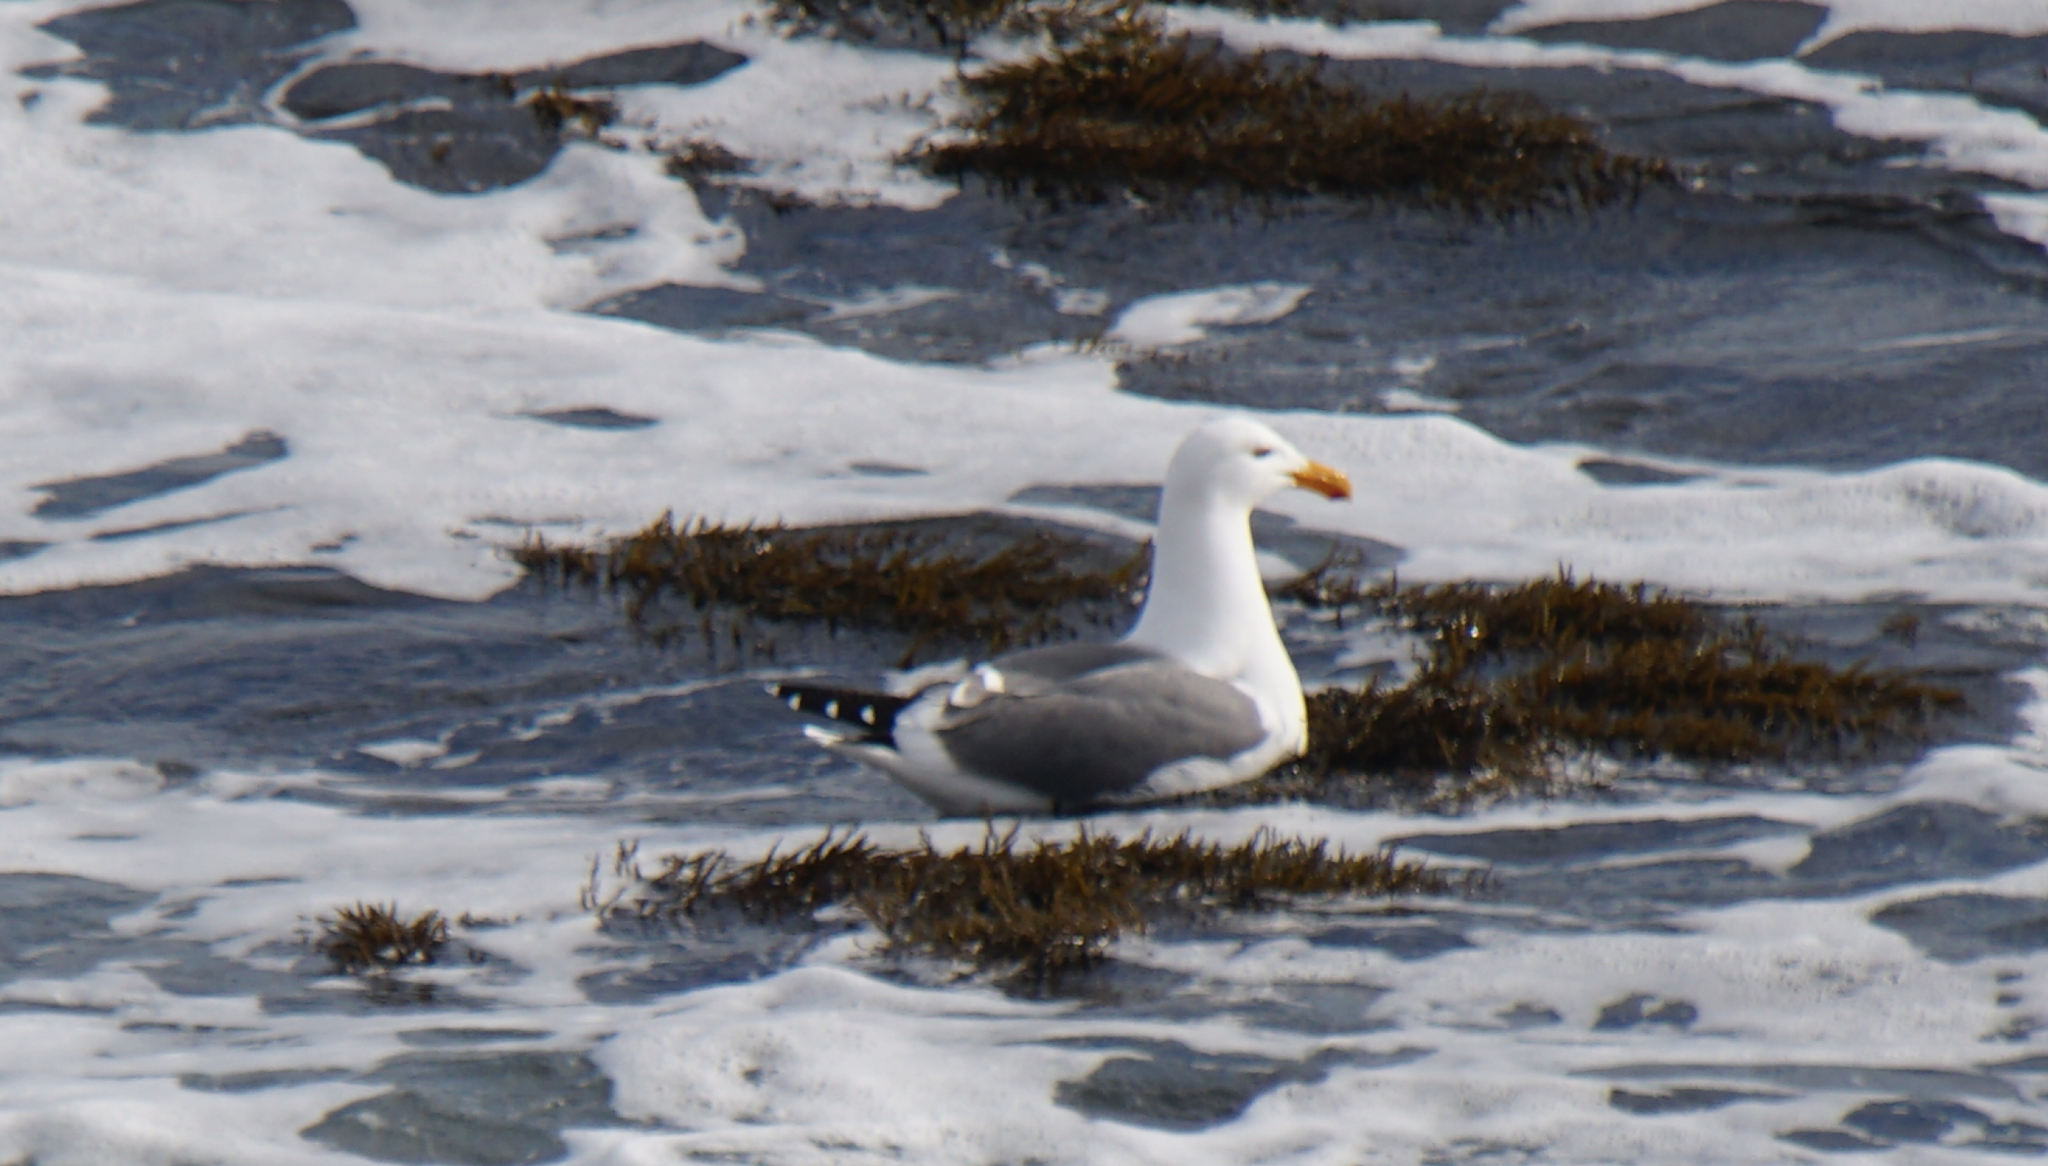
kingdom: Animalia
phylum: Chordata
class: Aves
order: Charadriiformes
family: Laridae
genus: Larus
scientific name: Larus occidentalis
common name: Western gull
